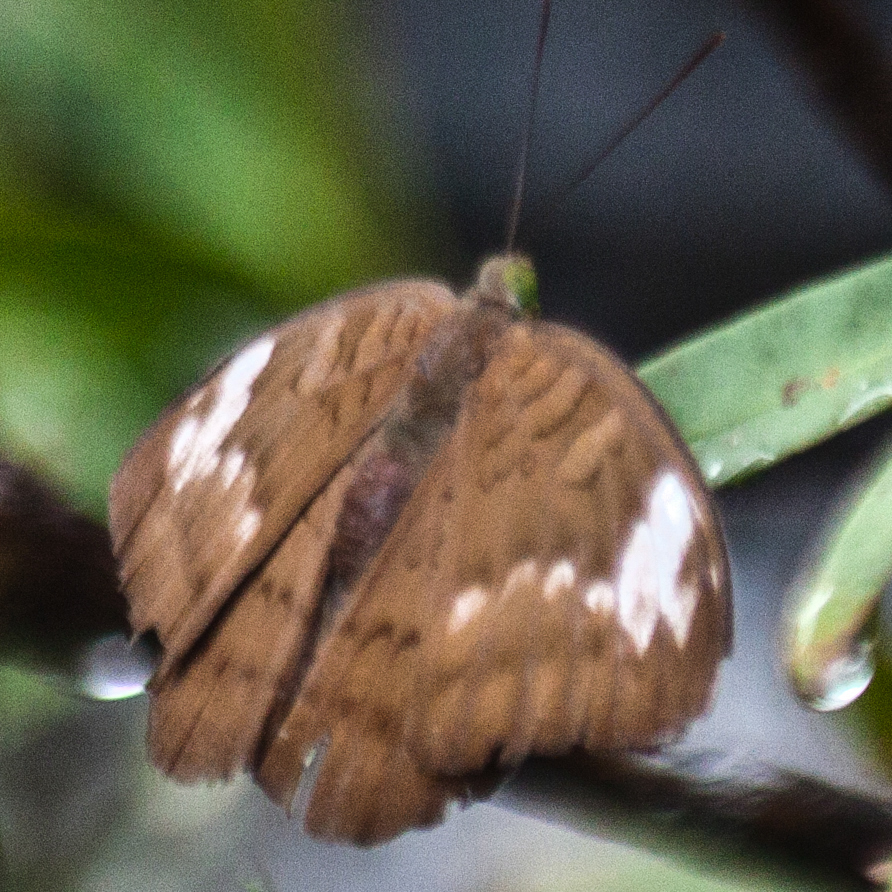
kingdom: Animalia
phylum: Arthropoda
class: Insecta
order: Lepidoptera
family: Nymphalidae
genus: Tanaecia
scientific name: Tanaecia julii
